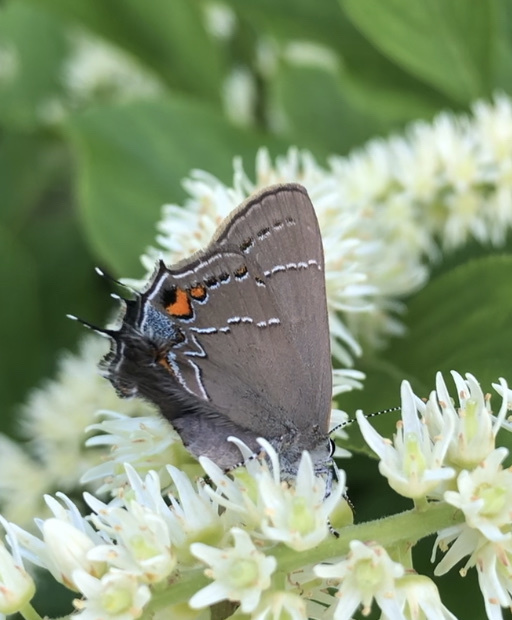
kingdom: Animalia
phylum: Arthropoda
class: Insecta
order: Lepidoptera
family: Lycaenidae
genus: Fixsenia
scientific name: Fixsenia favonius
